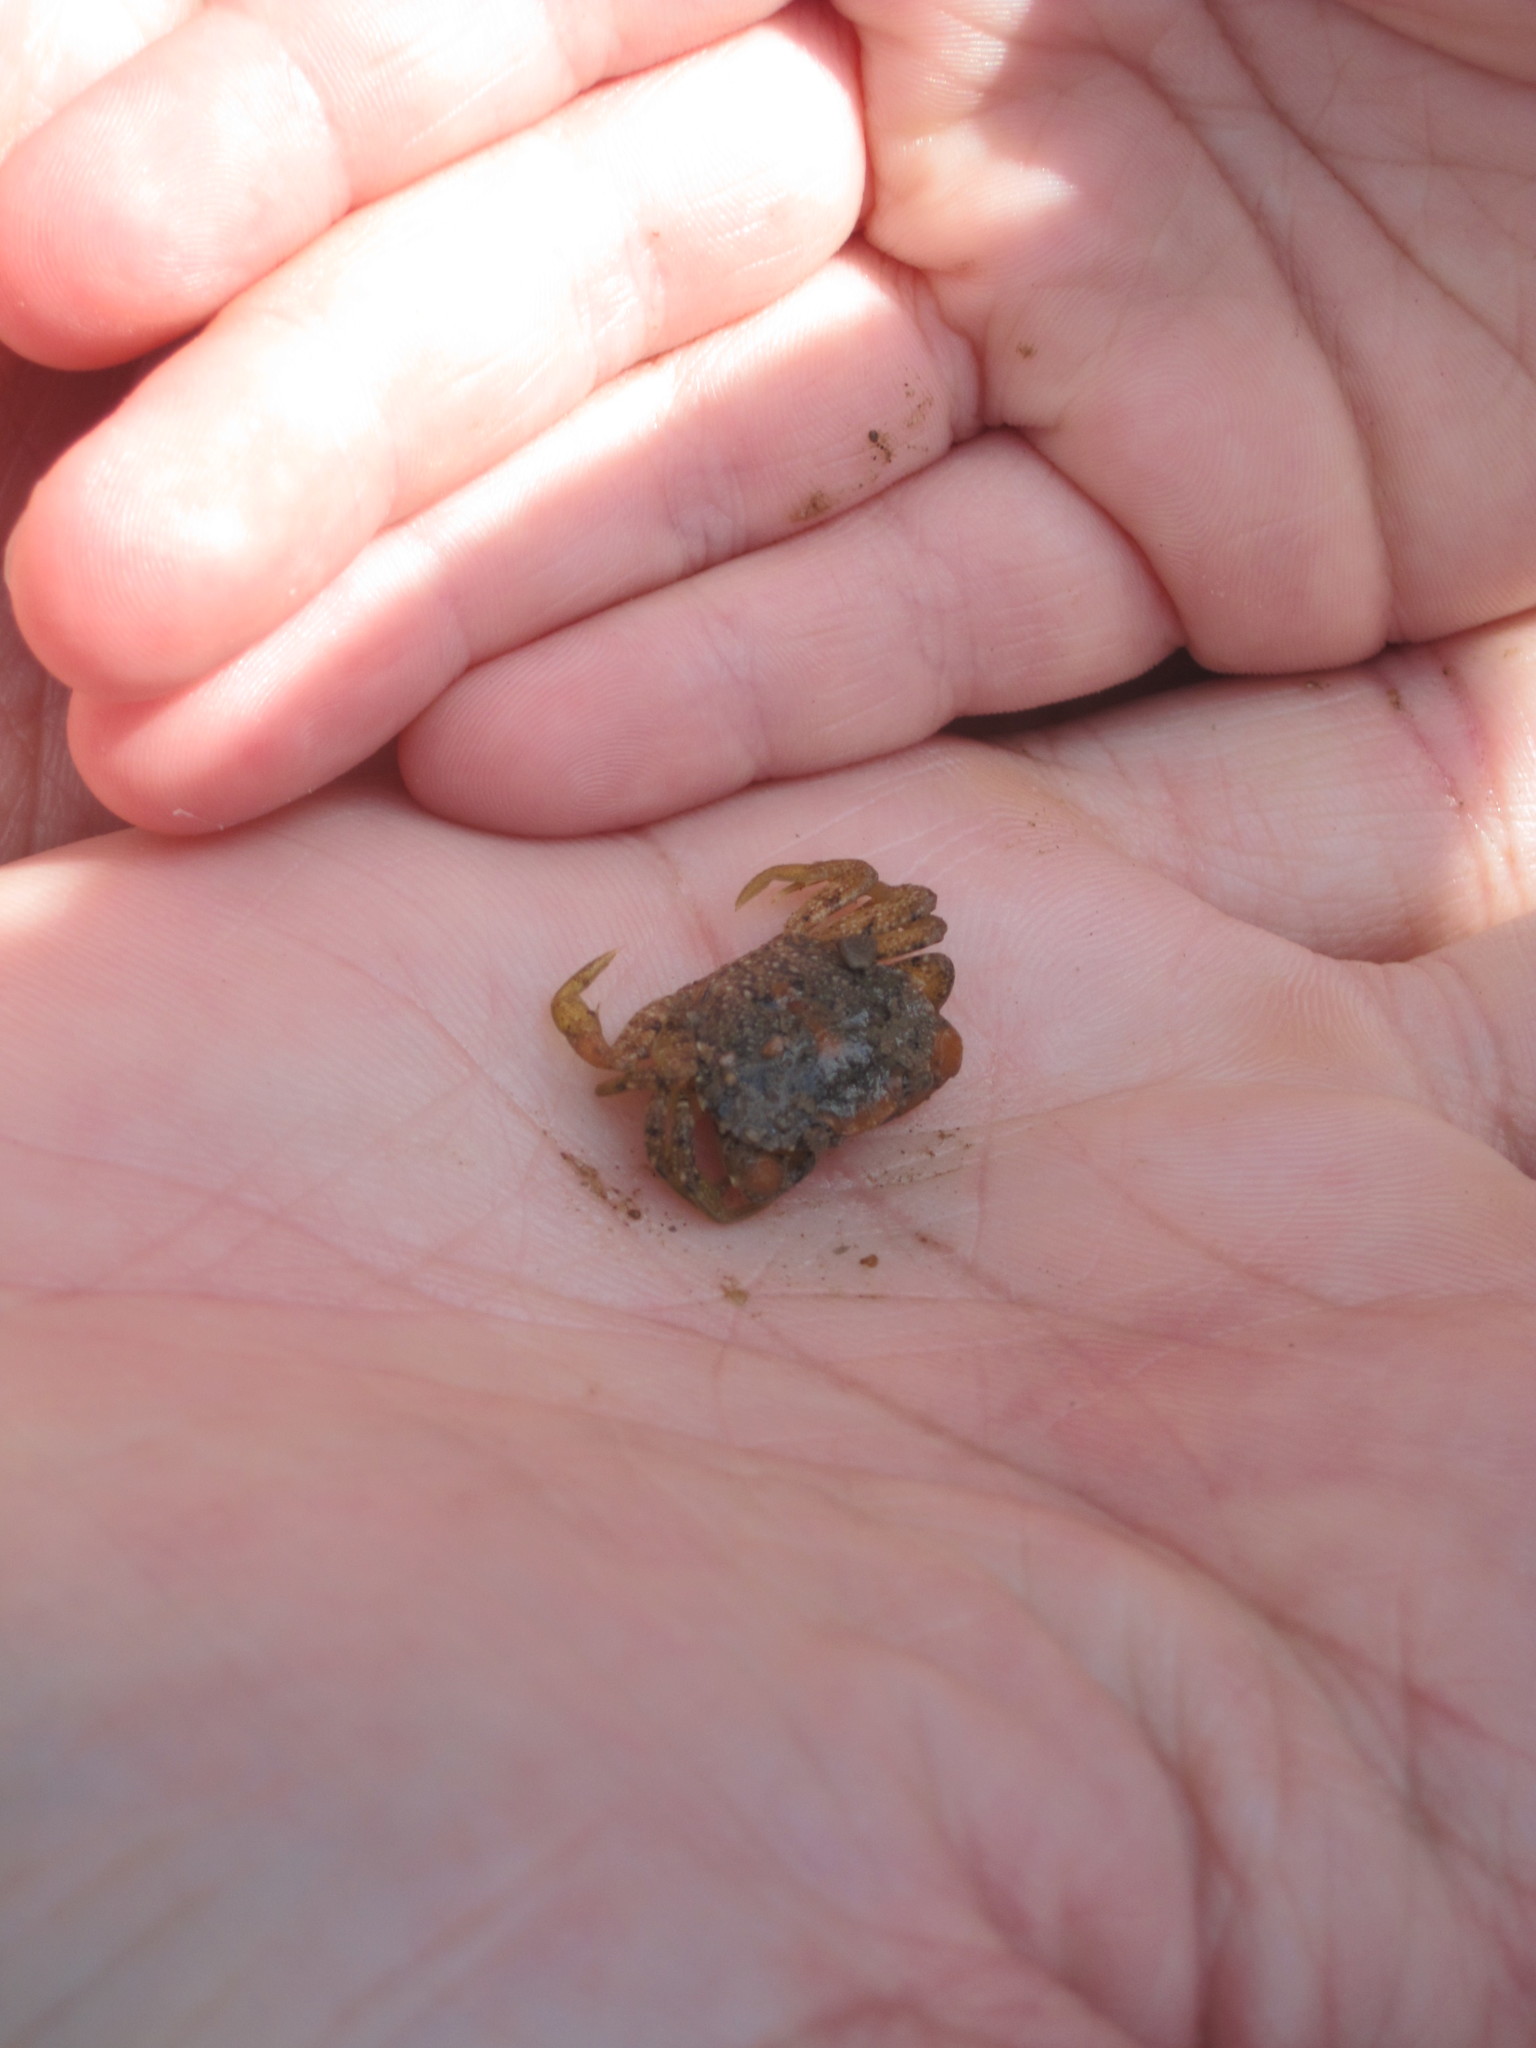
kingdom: Animalia
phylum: Arthropoda
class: Malacostraca
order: Decapoda
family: Carcinidae
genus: Carcinus
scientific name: Carcinus maenas
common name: European green crab
